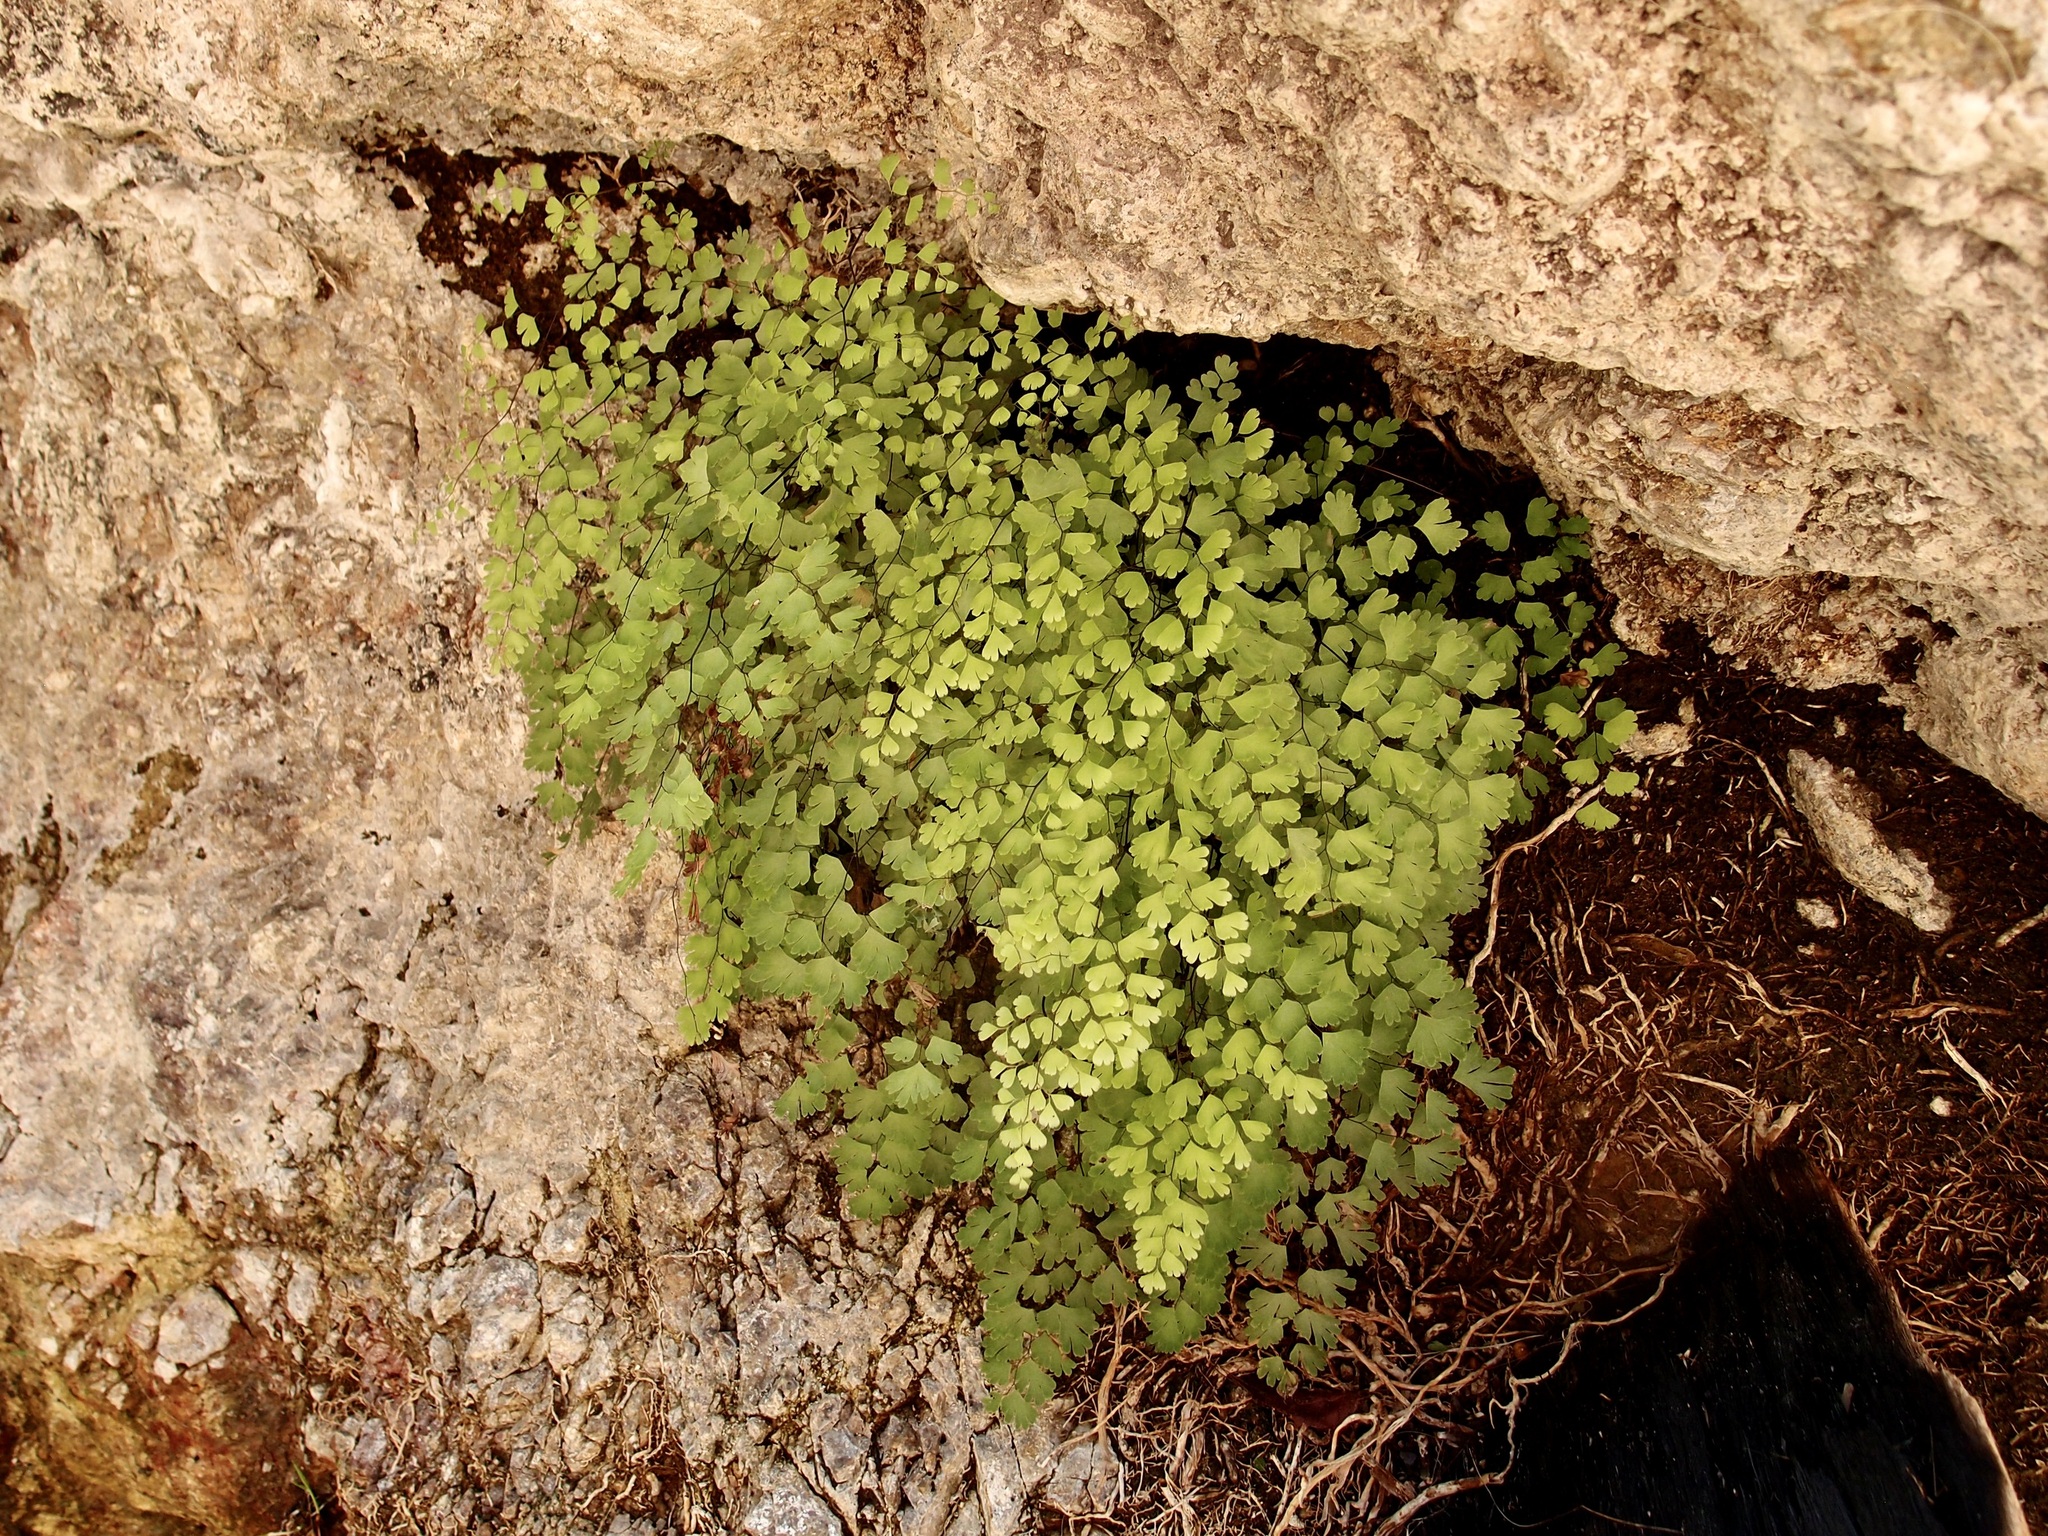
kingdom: Plantae
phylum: Tracheophyta
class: Polypodiopsida
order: Polypodiales
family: Pteridaceae
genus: Adiantum
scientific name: Adiantum capillus-veneris
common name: Maidenhair fern
